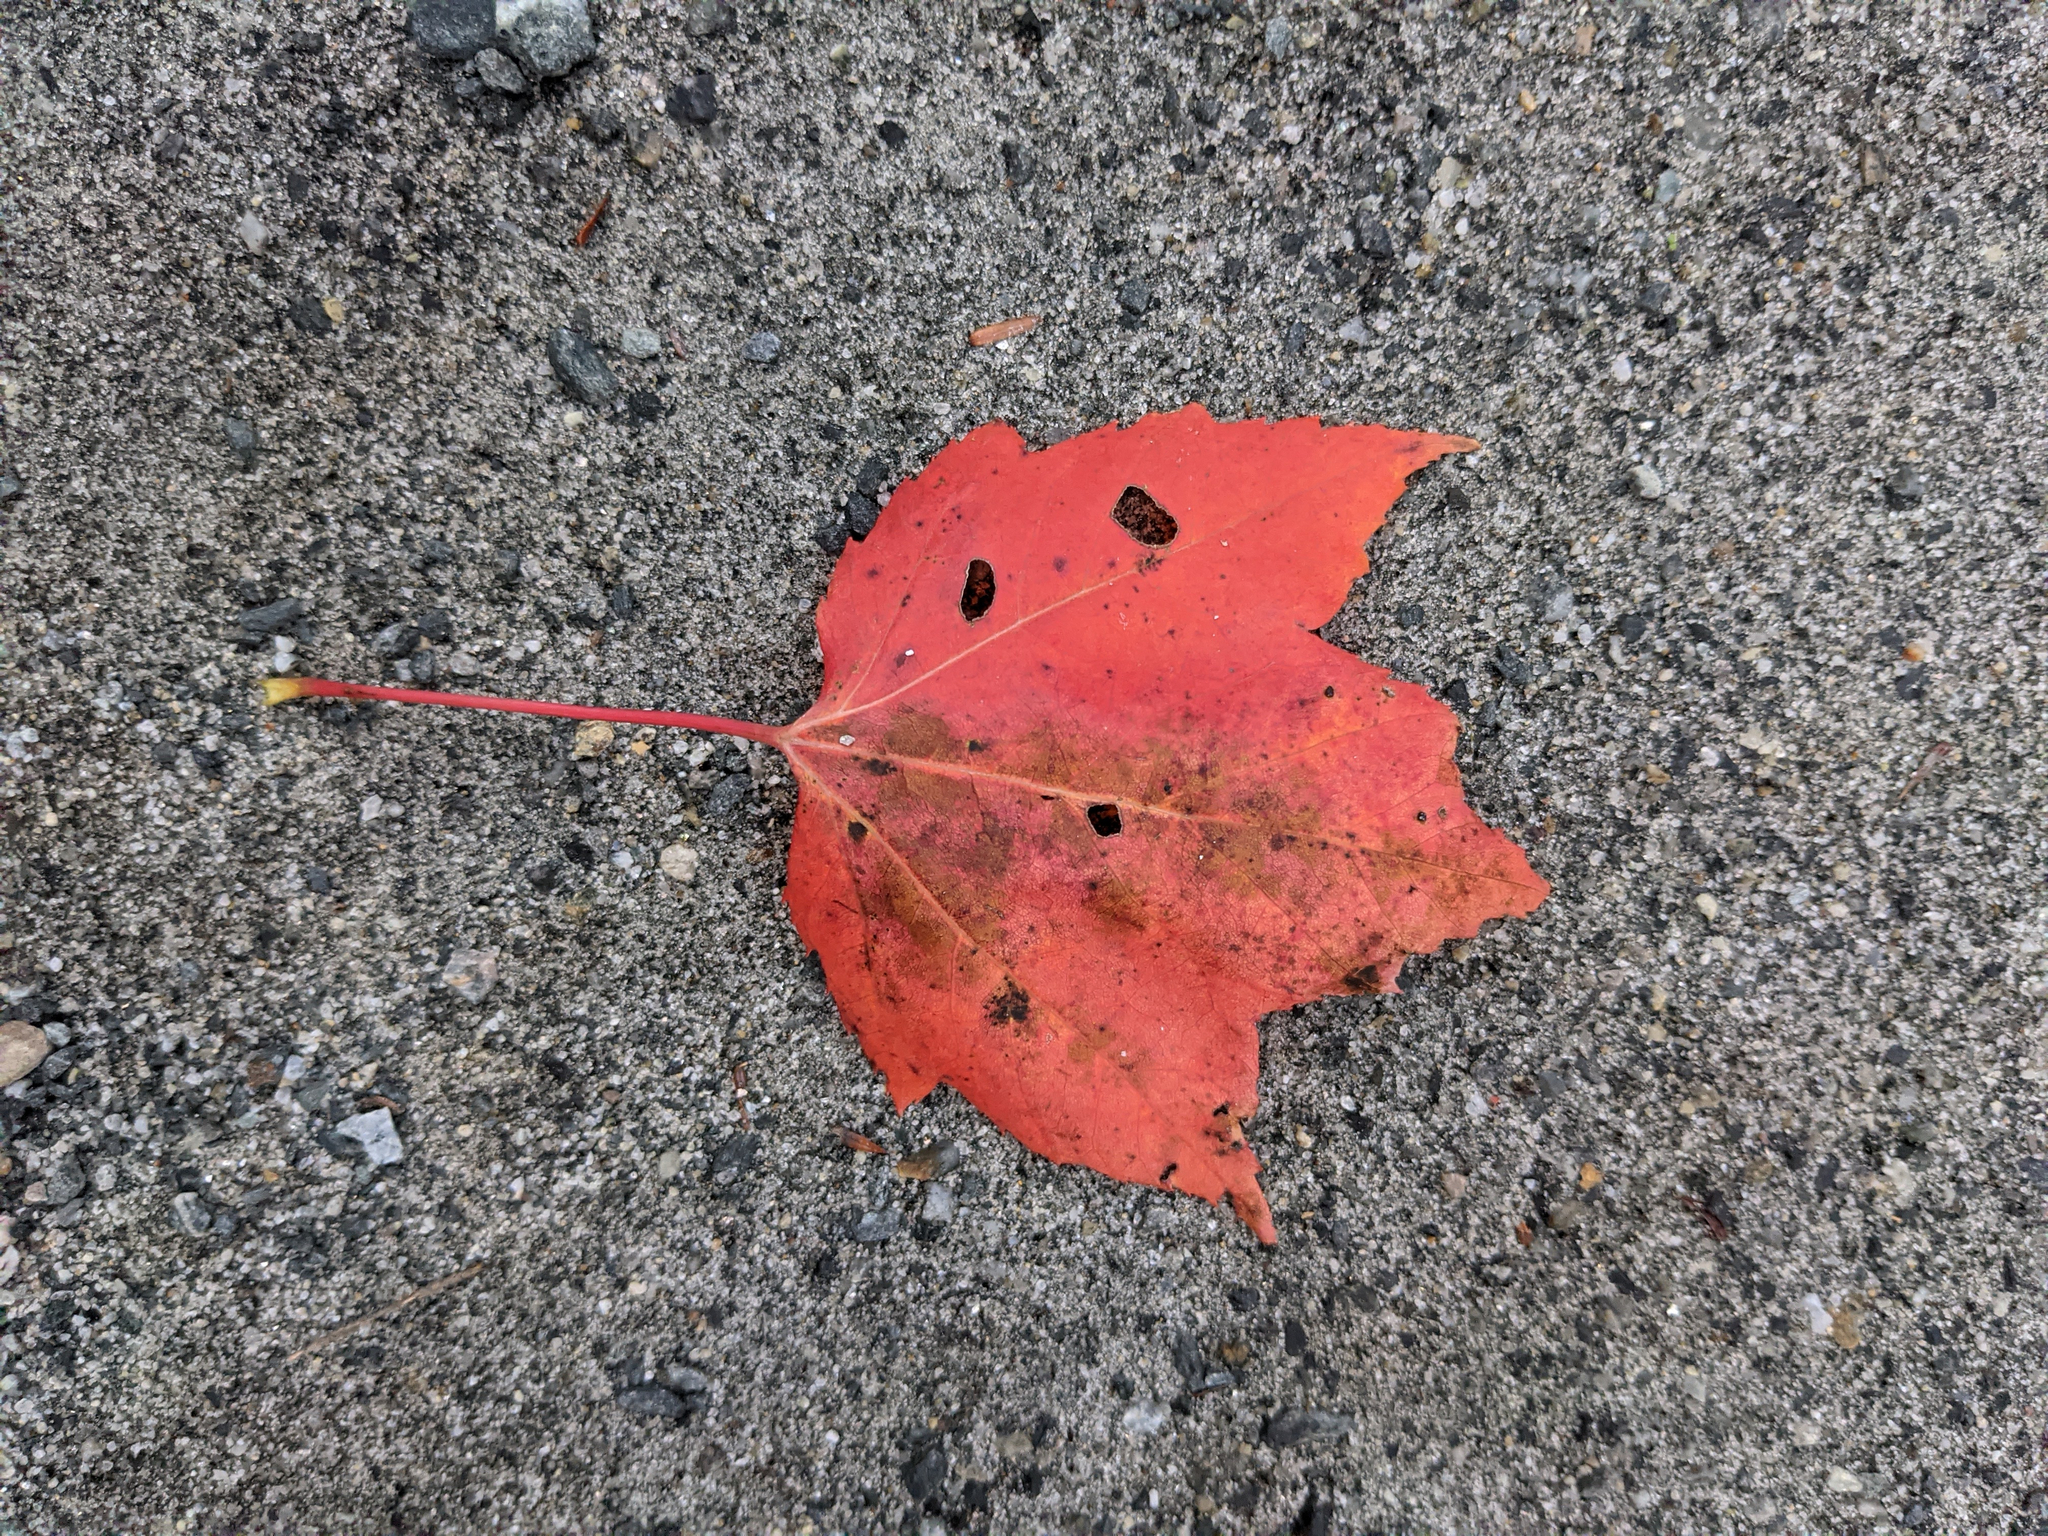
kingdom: Plantae
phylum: Tracheophyta
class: Magnoliopsida
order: Sapindales
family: Sapindaceae
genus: Acer
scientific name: Acer rubrum
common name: Red maple
